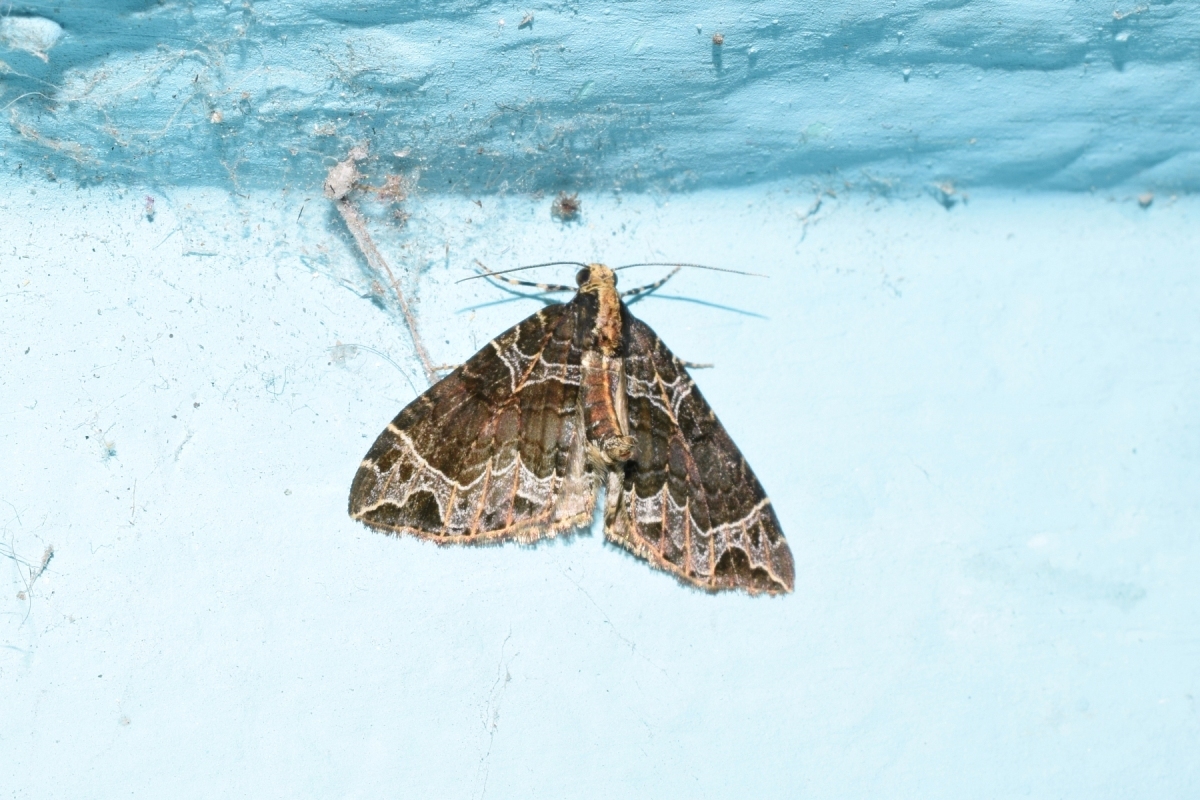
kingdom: Animalia
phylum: Arthropoda
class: Insecta
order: Lepidoptera
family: Geometridae
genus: Ecliptopera
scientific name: Ecliptopera postpallida
